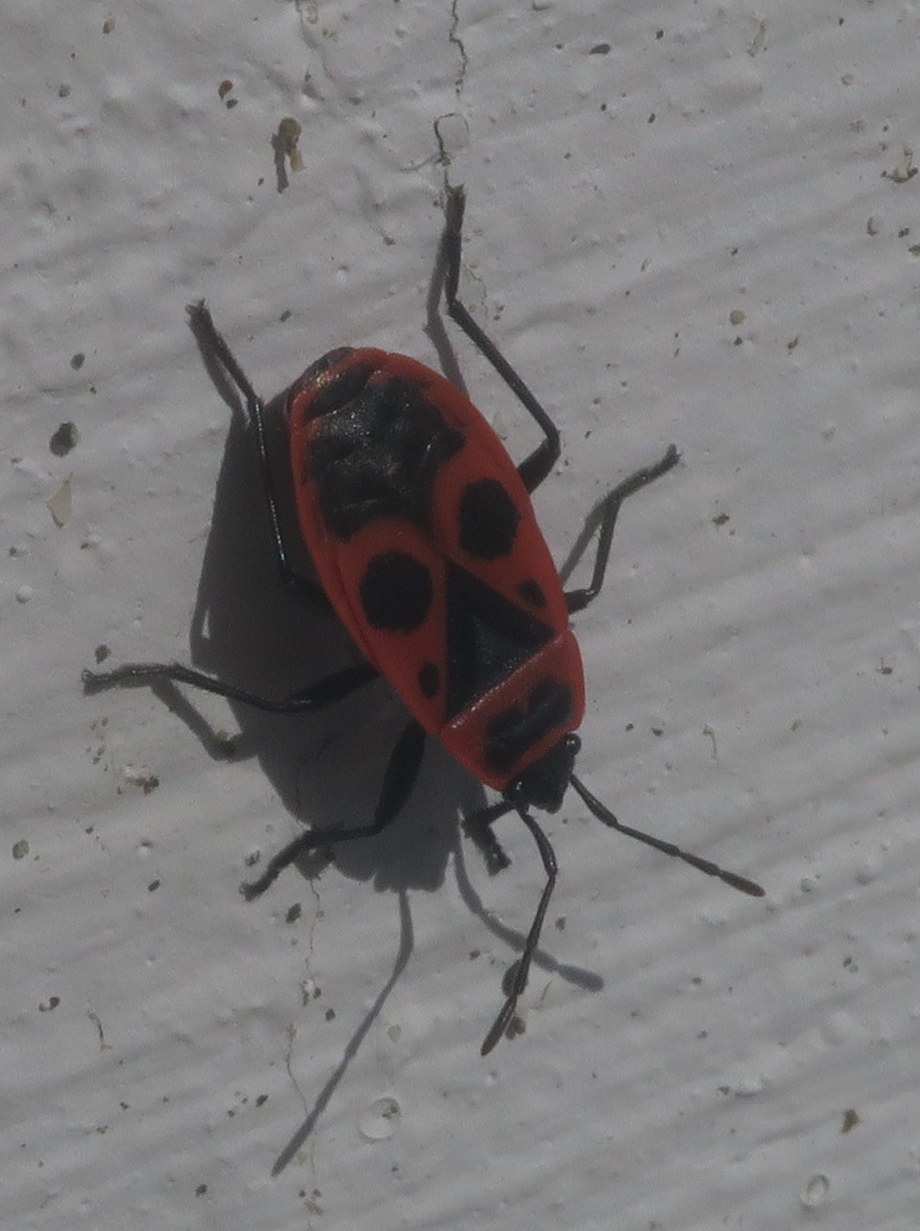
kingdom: Animalia
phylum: Arthropoda
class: Insecta
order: Hemiptera
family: Pyrrhocoridae
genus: Pyrrhocoris
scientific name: Pyrrhocoris apterus
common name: Firebug
